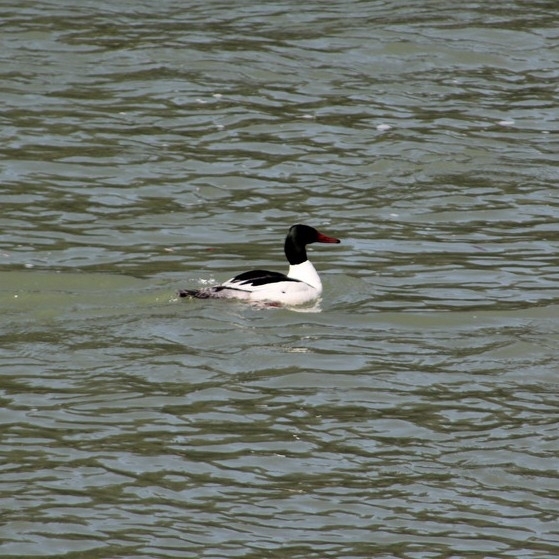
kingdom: Animalia
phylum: Chordata
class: Aves
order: Anseriformes
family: Anatidae
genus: Mergus
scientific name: Mergus merganser
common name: Common merganser
